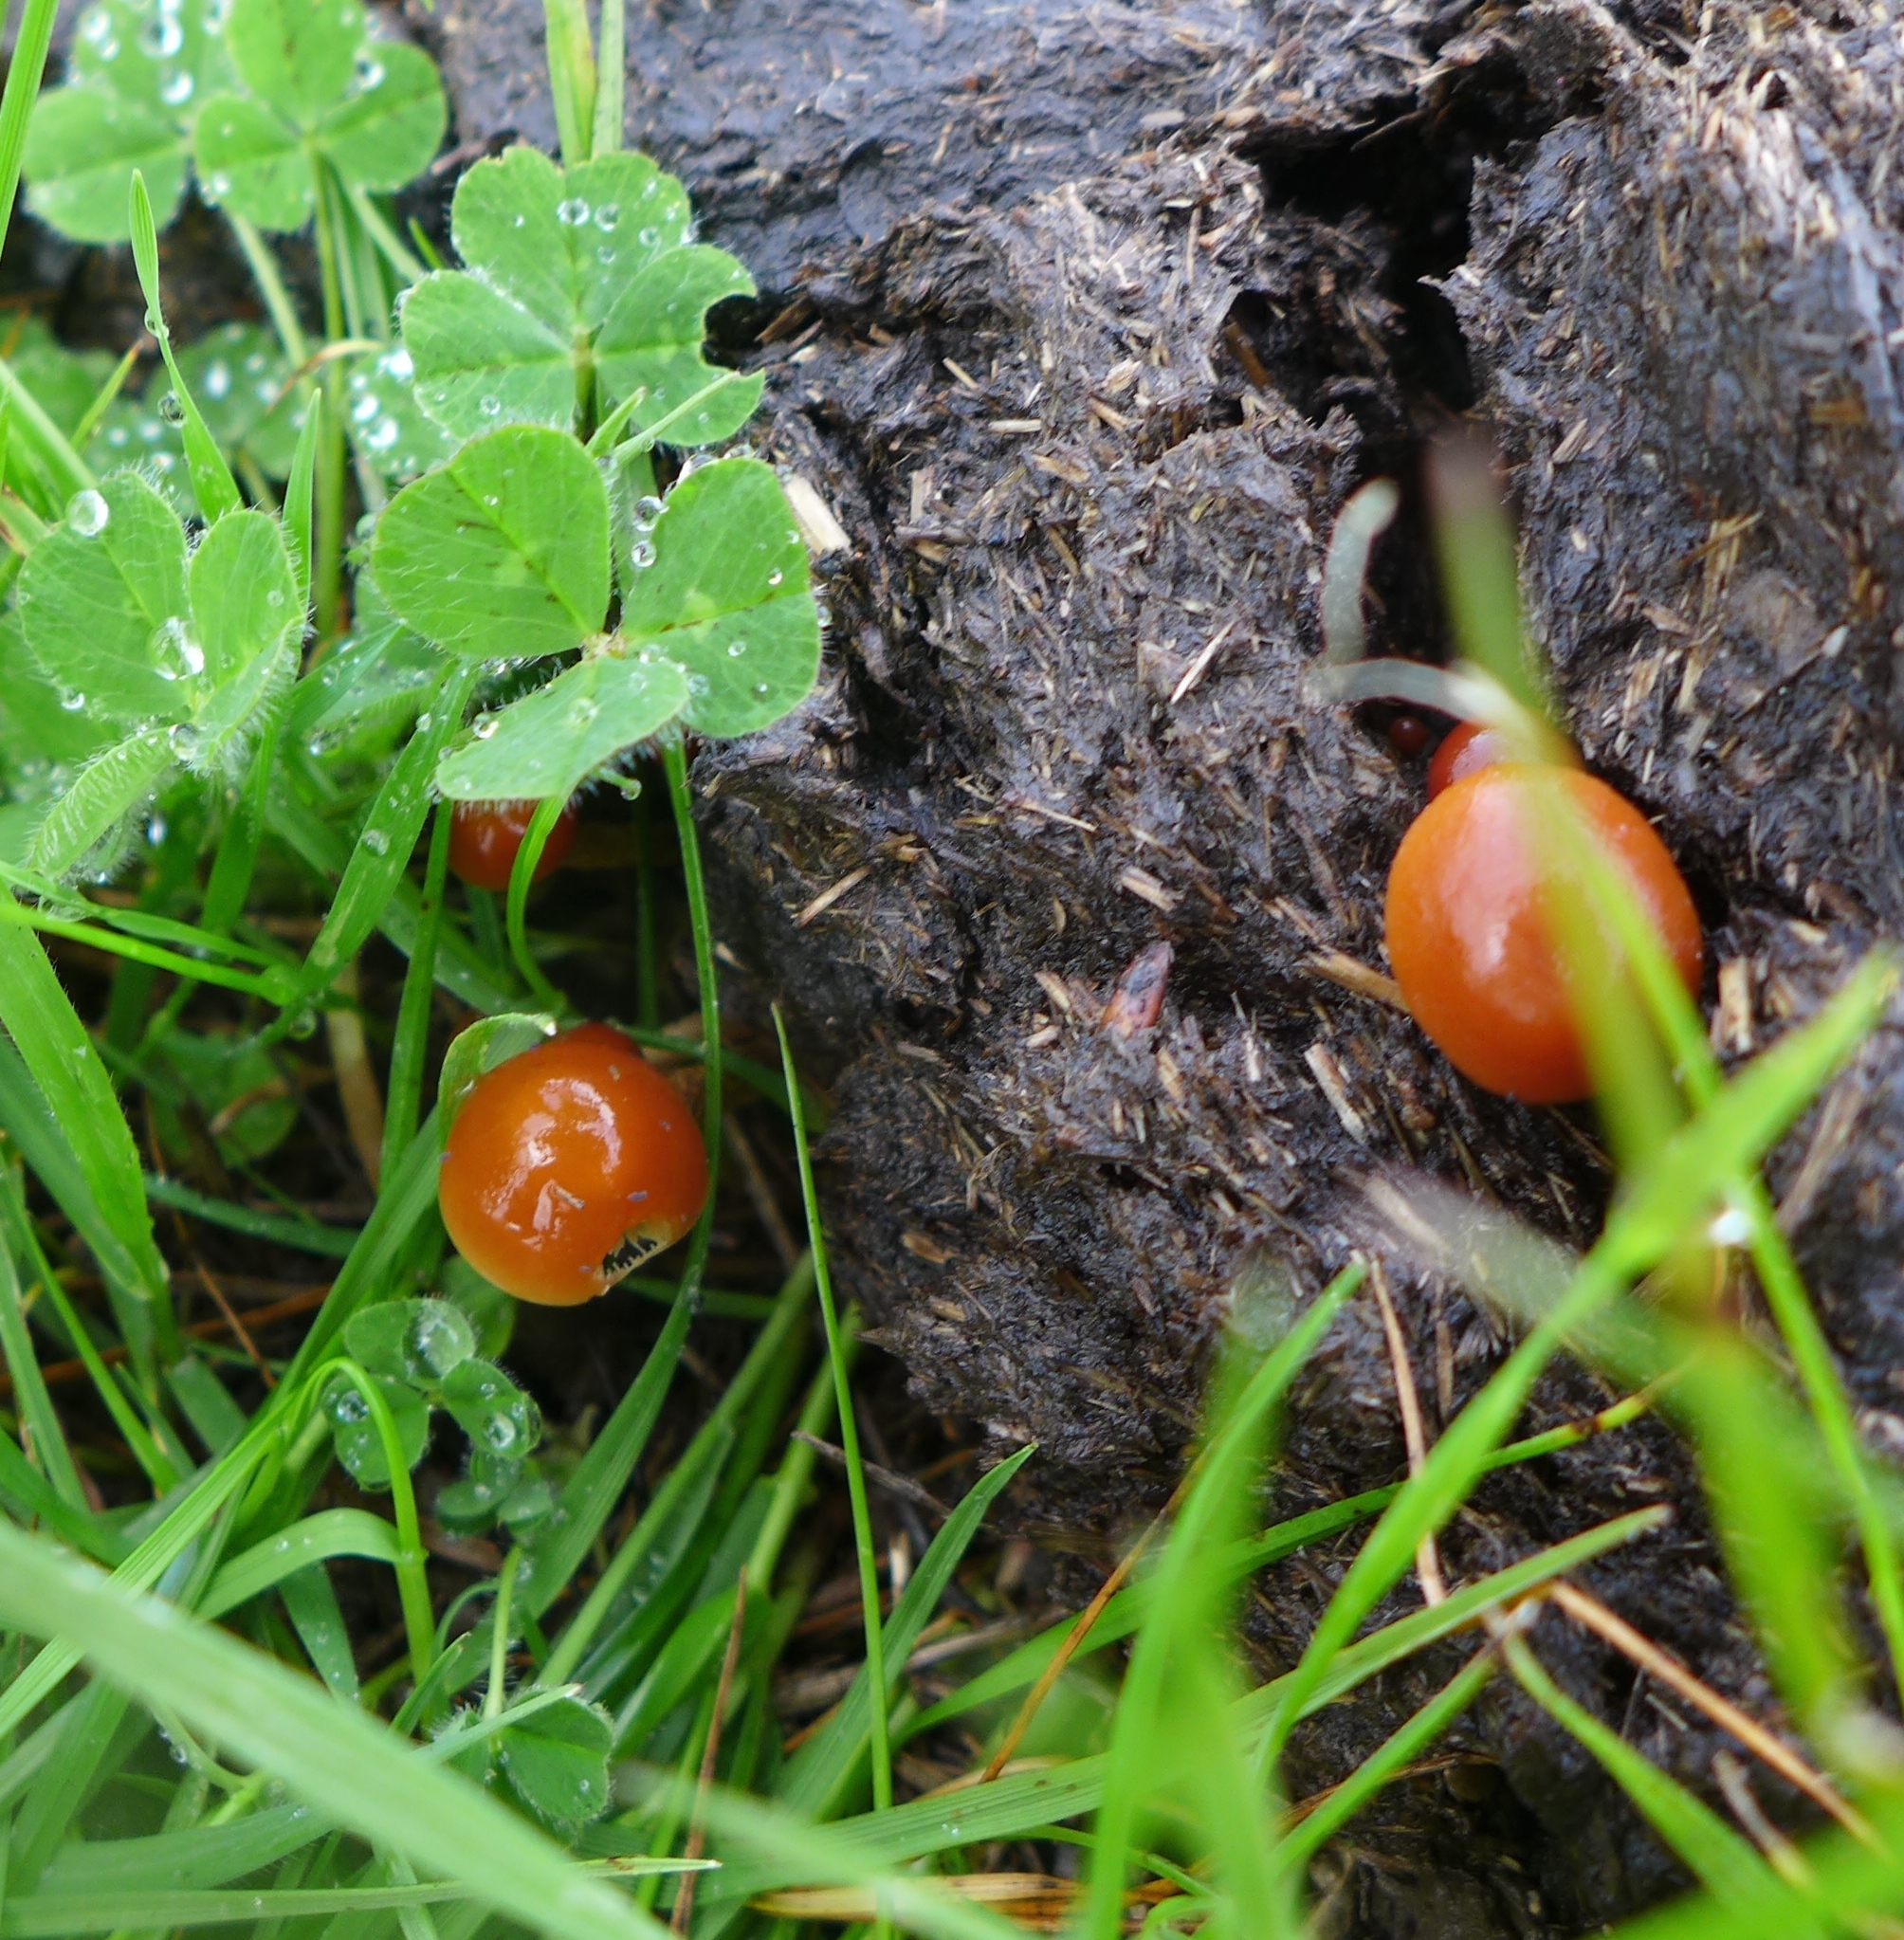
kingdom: Fungi
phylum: Basidiomycota
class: Agaricomycetes
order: Agaricales
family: Strophariaceae
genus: Deconica
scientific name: Deconica coprophila
